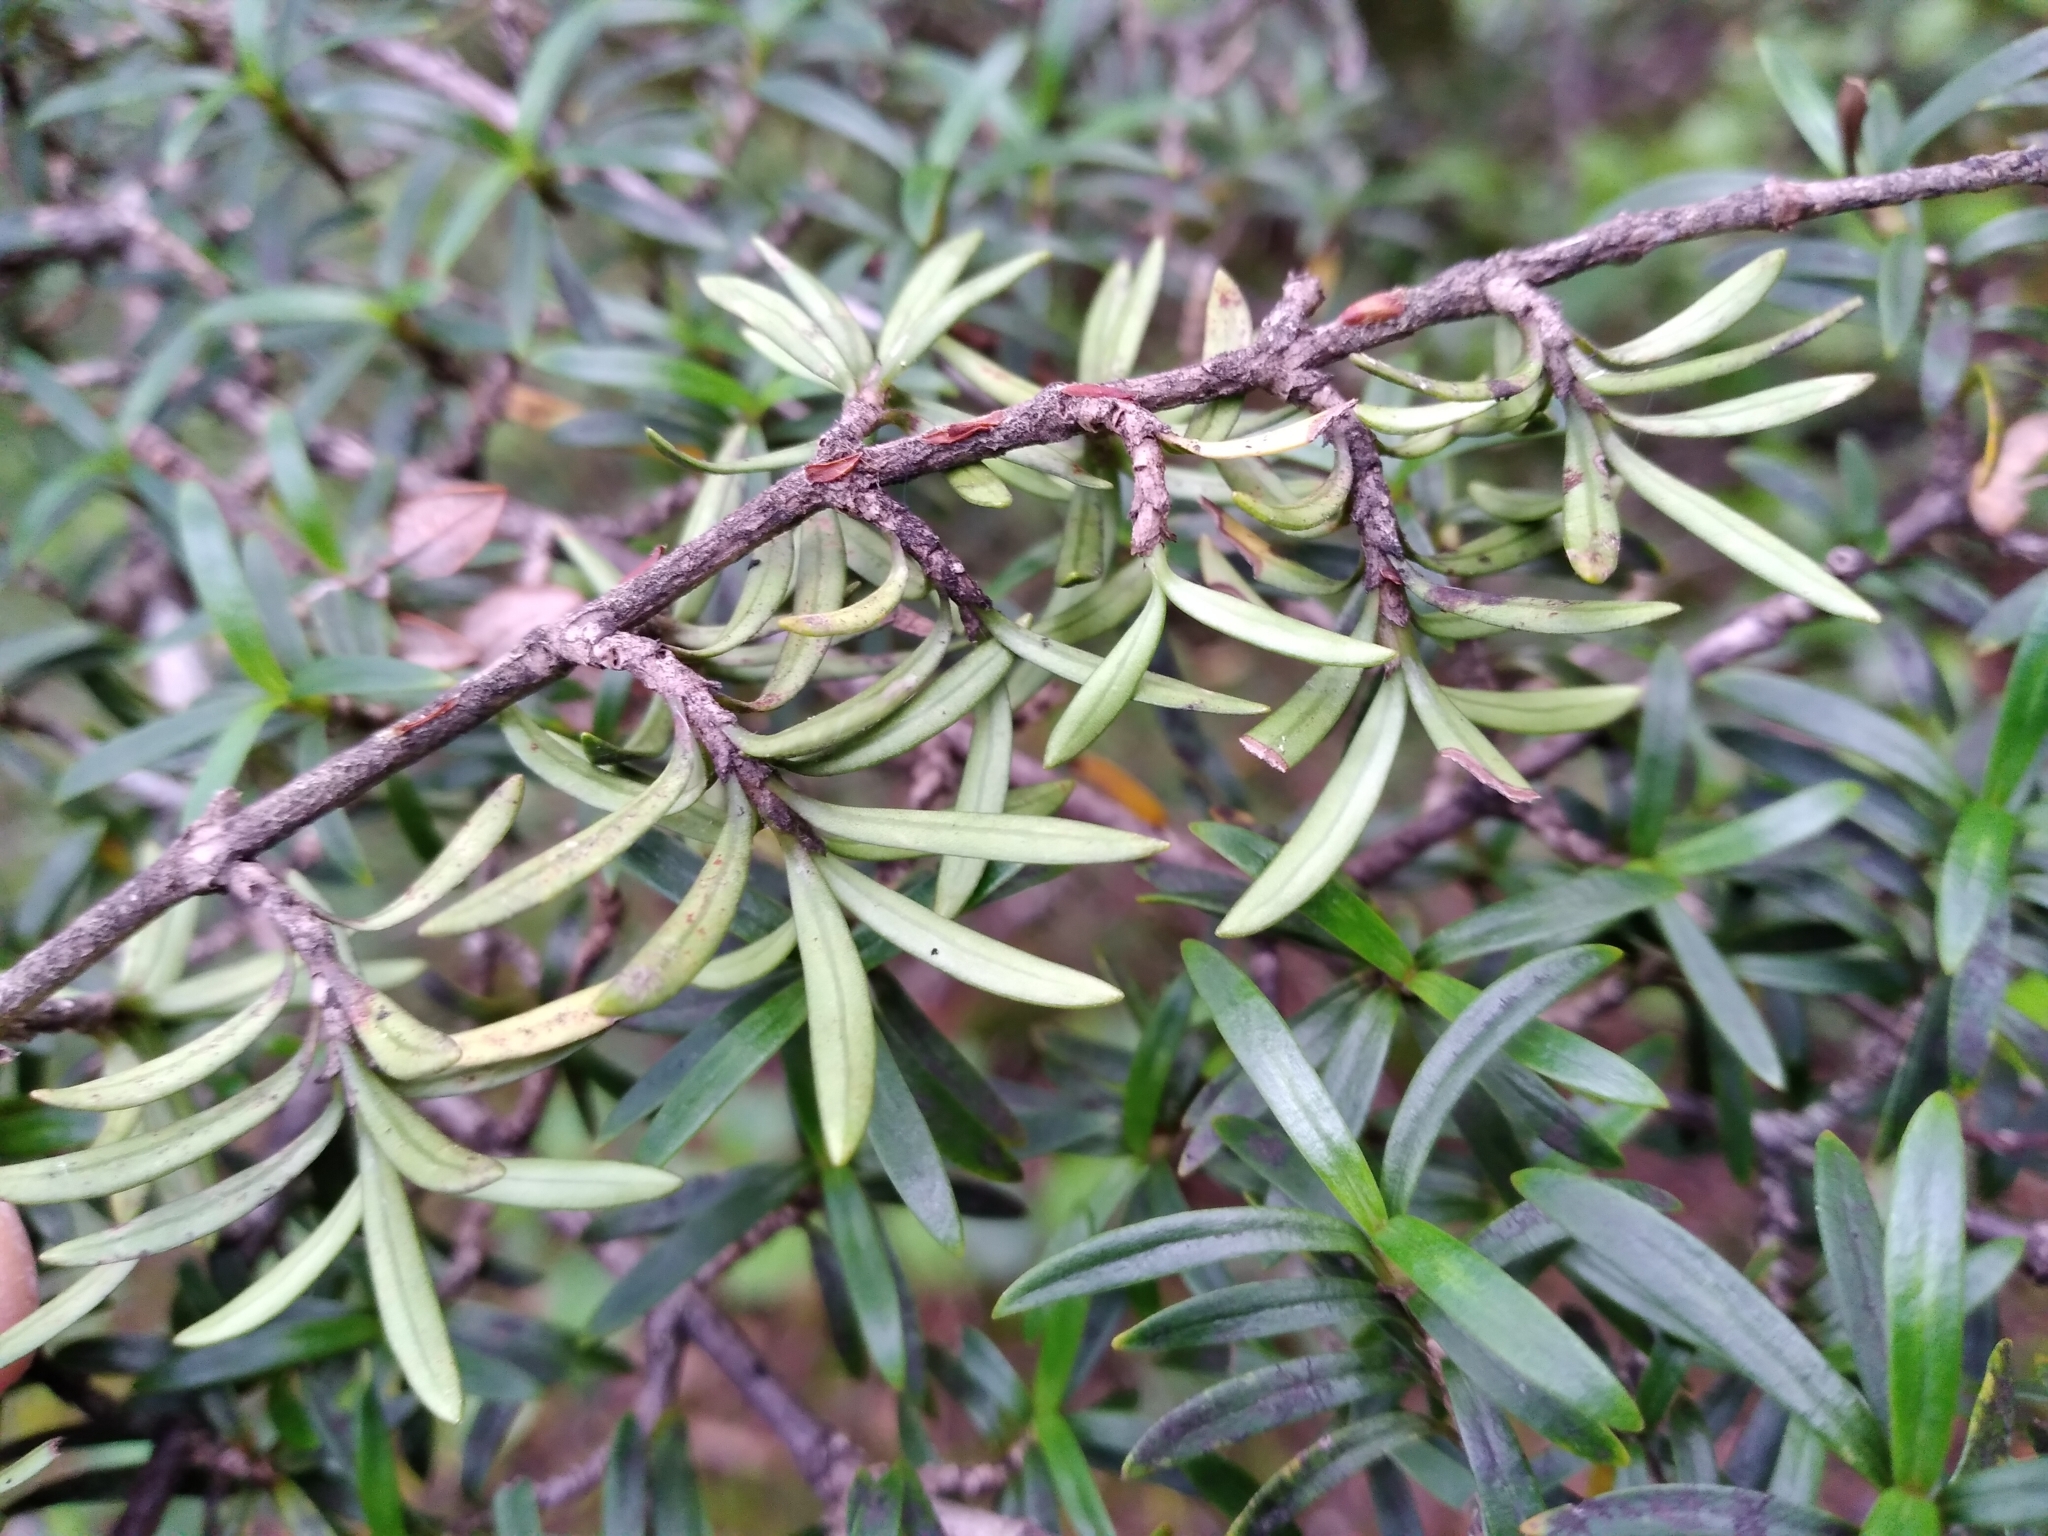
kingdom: Plantae
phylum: Tracheophyta
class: Magnoliopsida
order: Gentianales
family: Rubiaceae
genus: Coprosma
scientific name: Coprosma linariifolia
